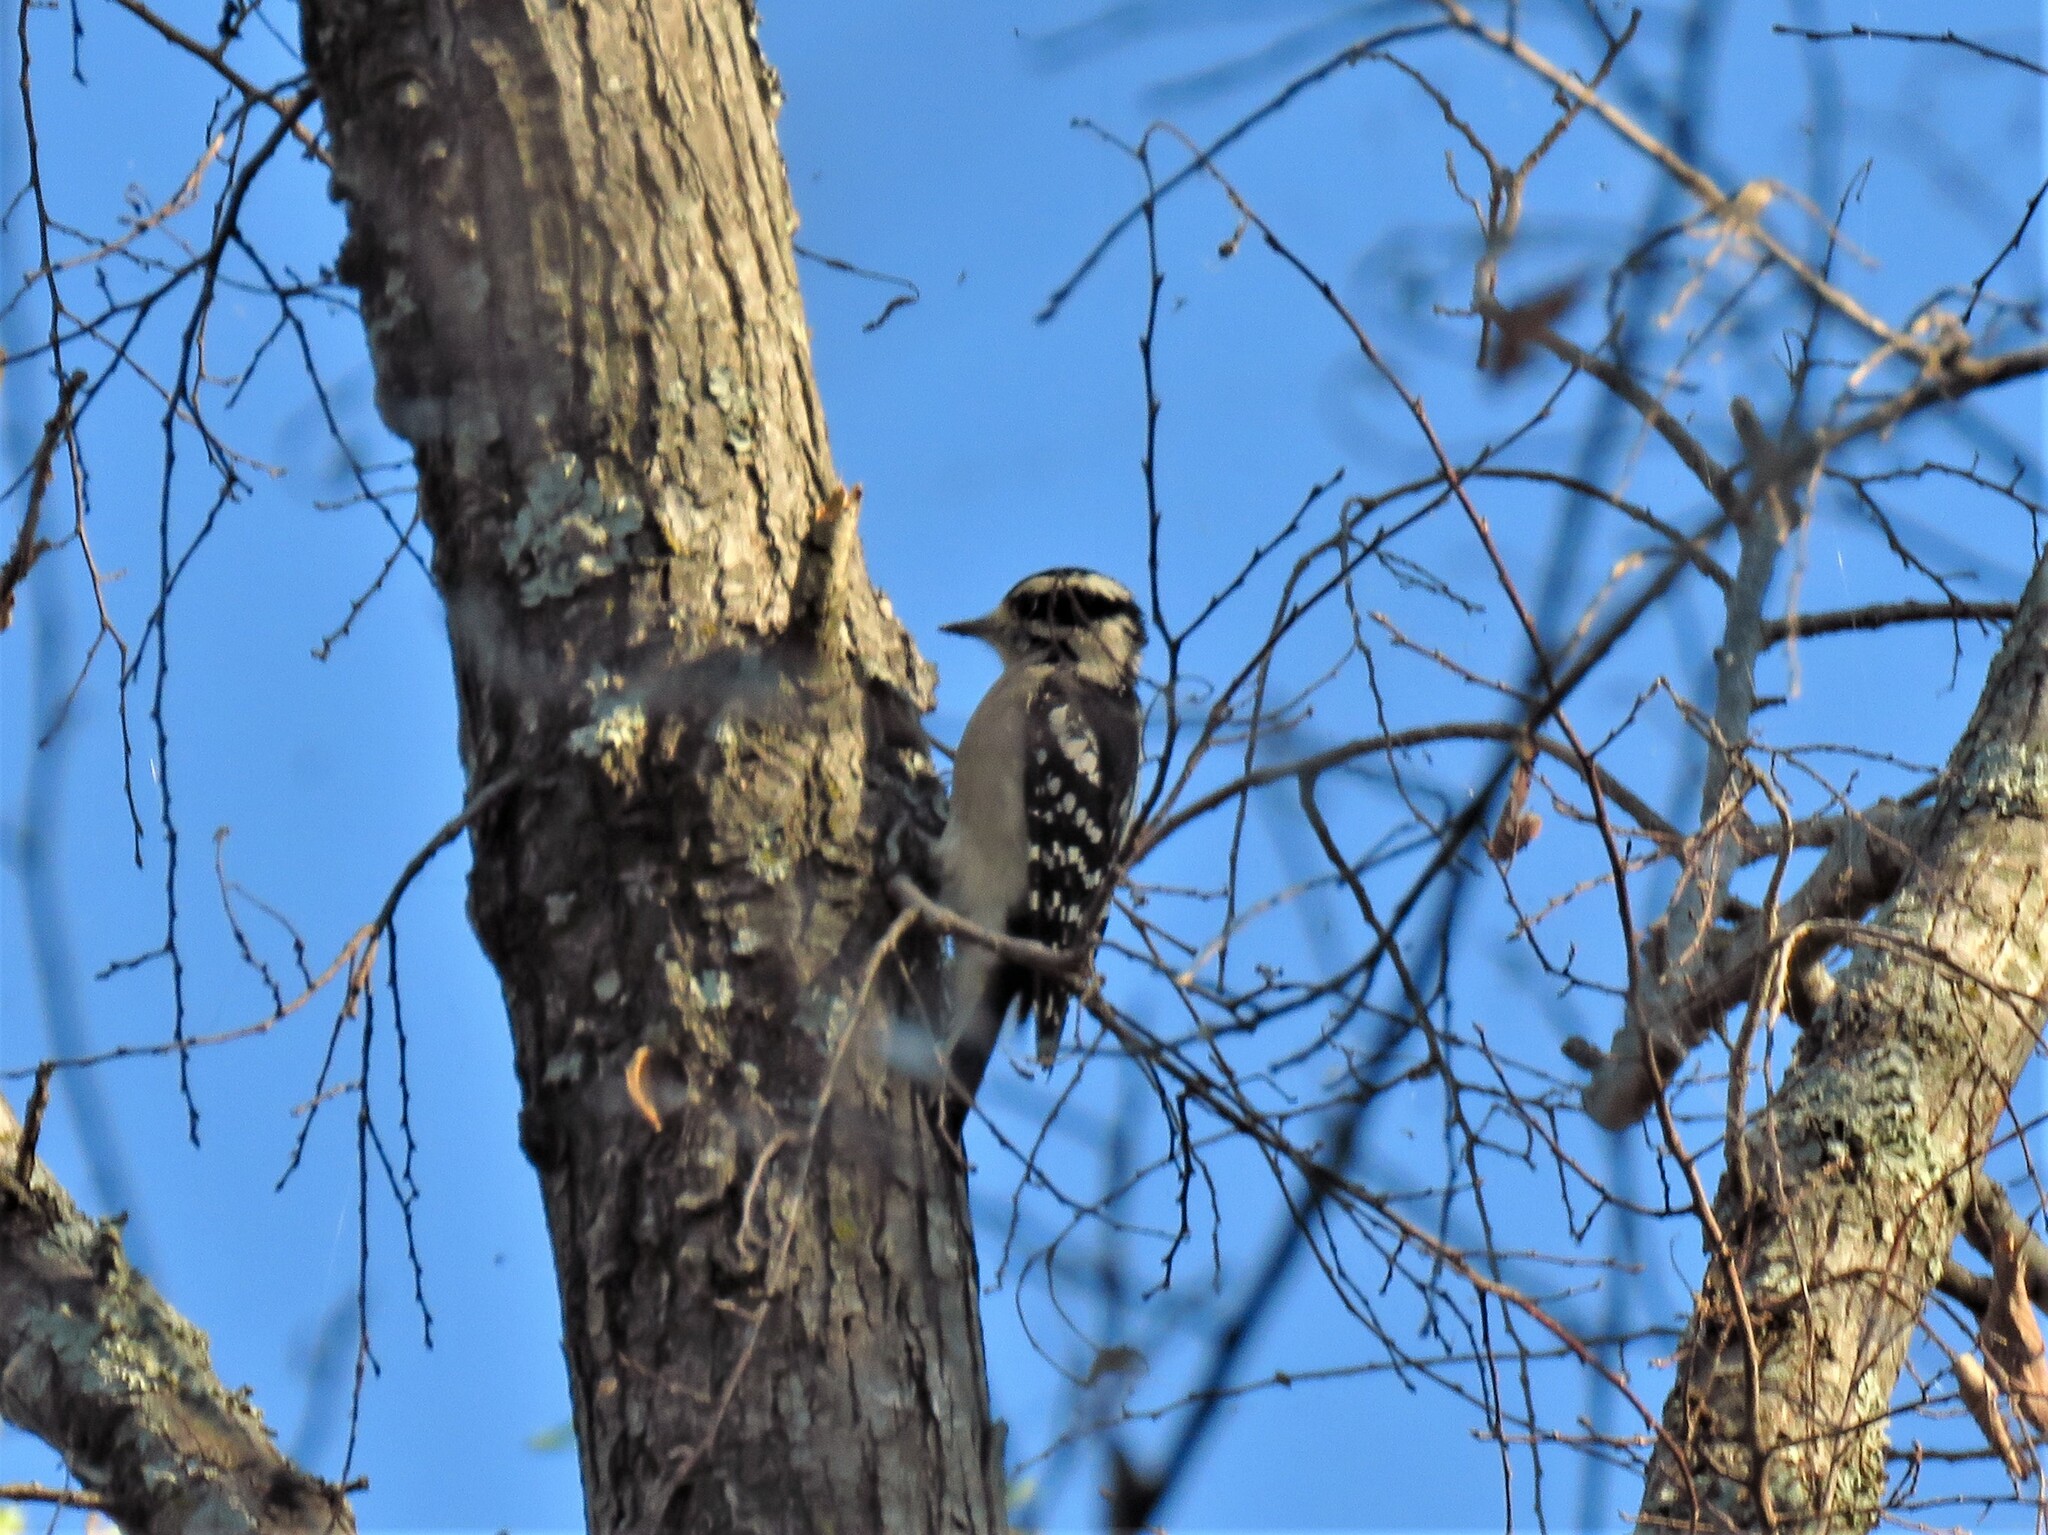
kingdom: Animalia
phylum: Chordata
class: Aves
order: Piciformes
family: Picidae
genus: Dryobates
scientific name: Dryobates pubescens
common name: Downy woodpecker
